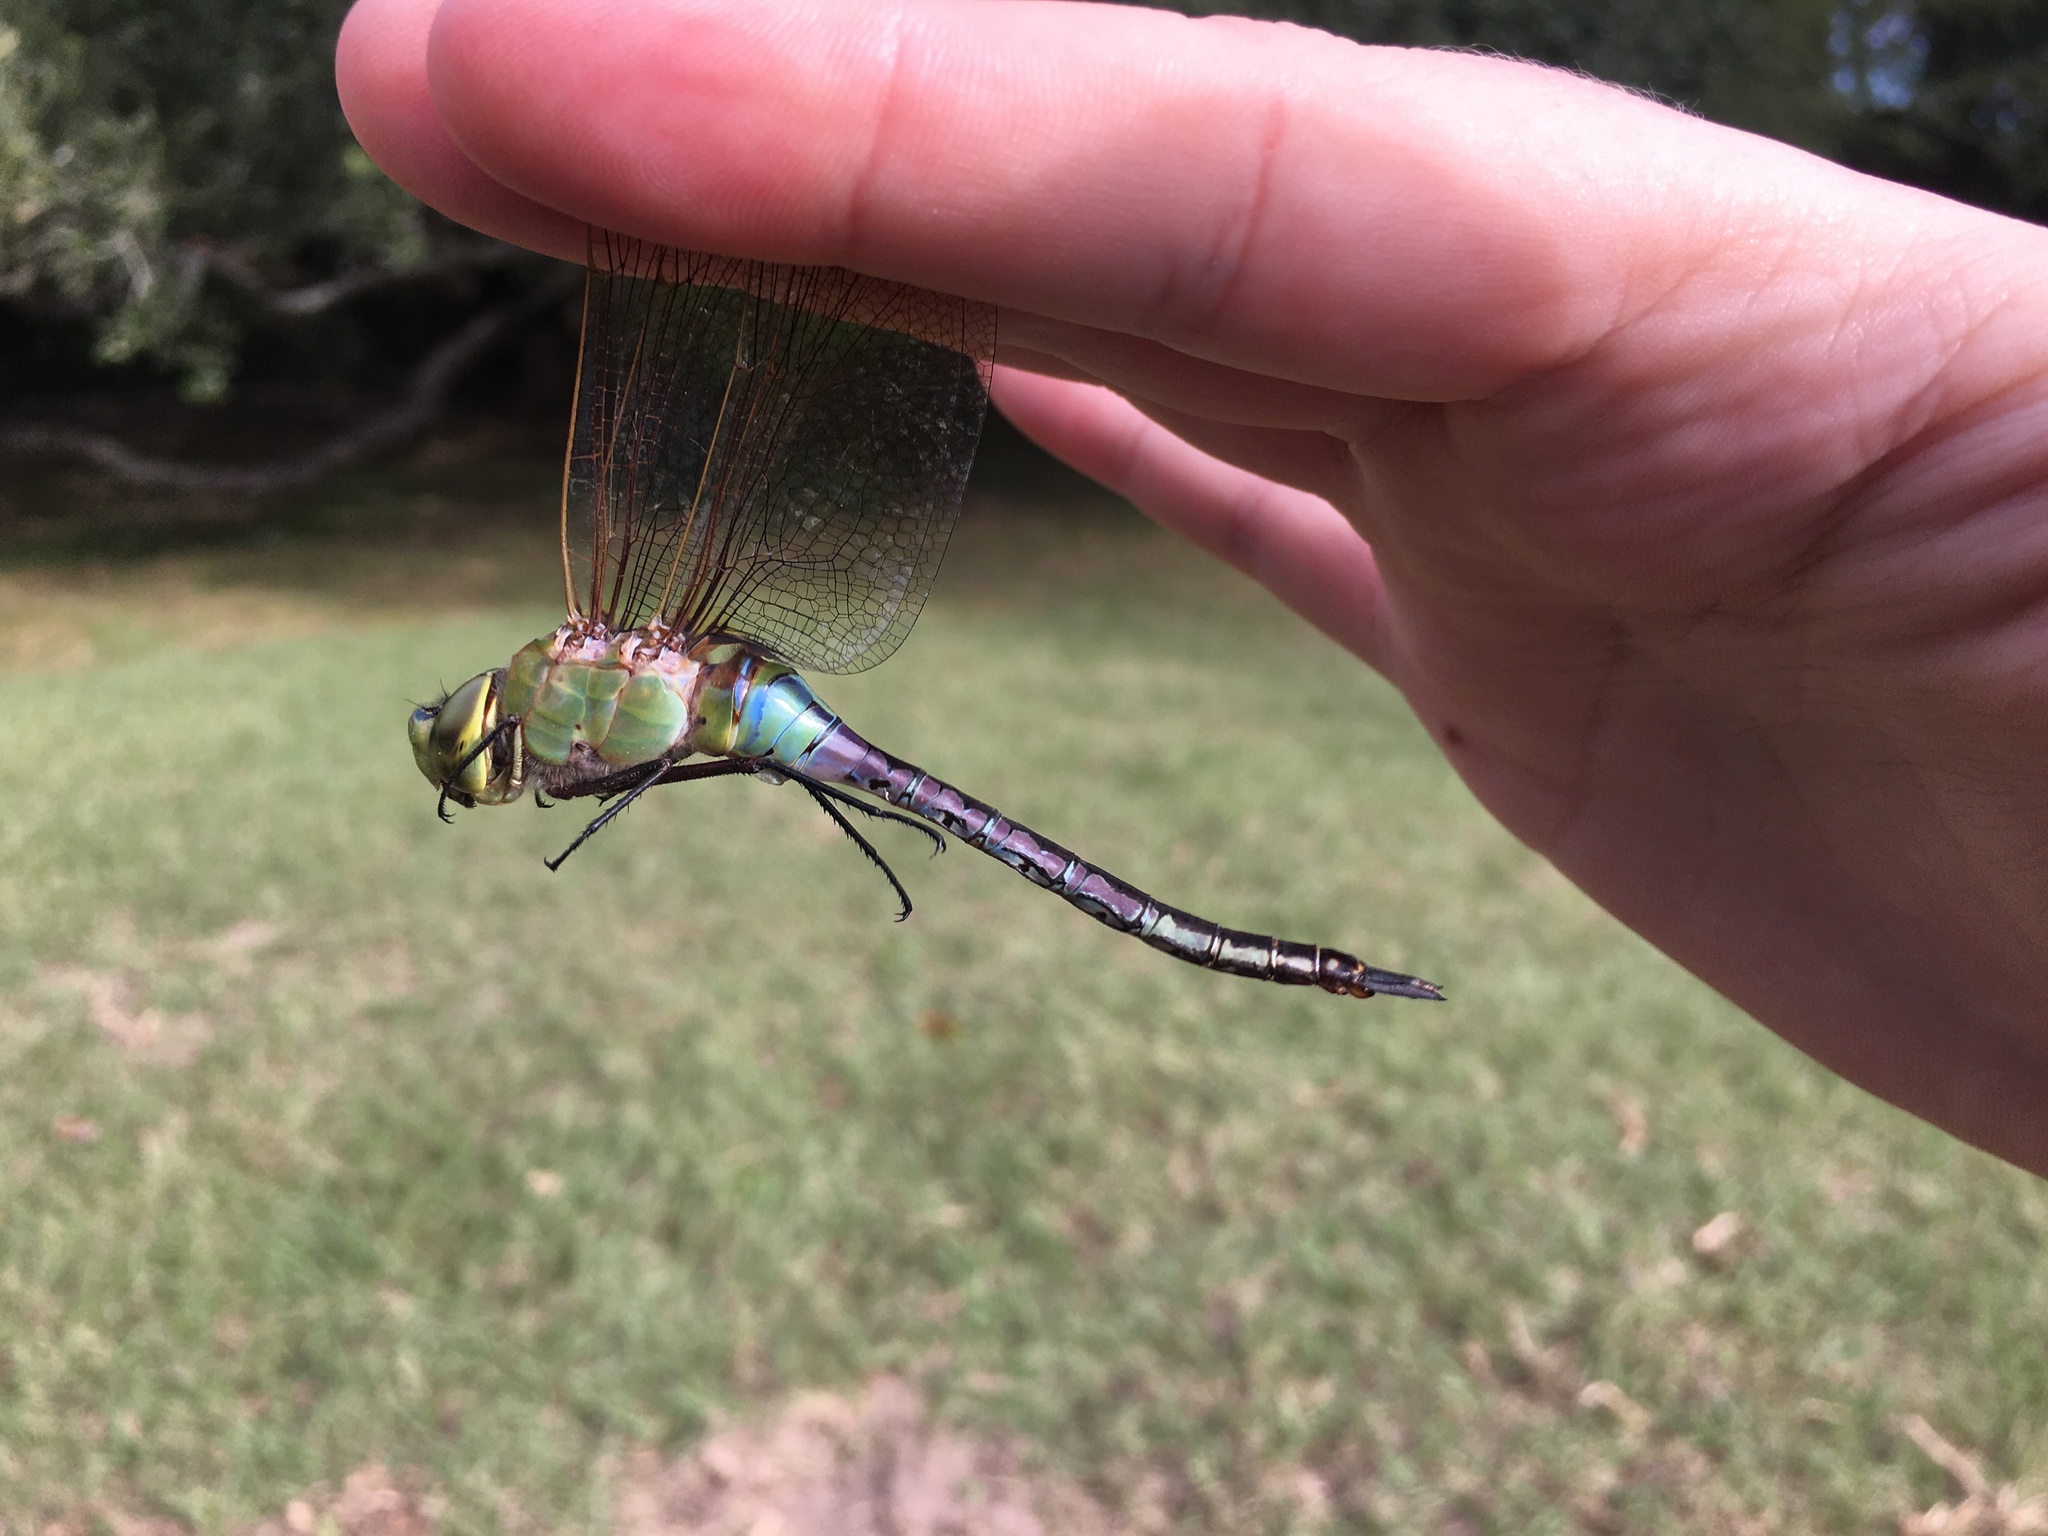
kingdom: Animalia
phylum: Arthropoda
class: Insecta
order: Odonata
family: Aeshnidae
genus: Anax
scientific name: Anax junius
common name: Common green darner
